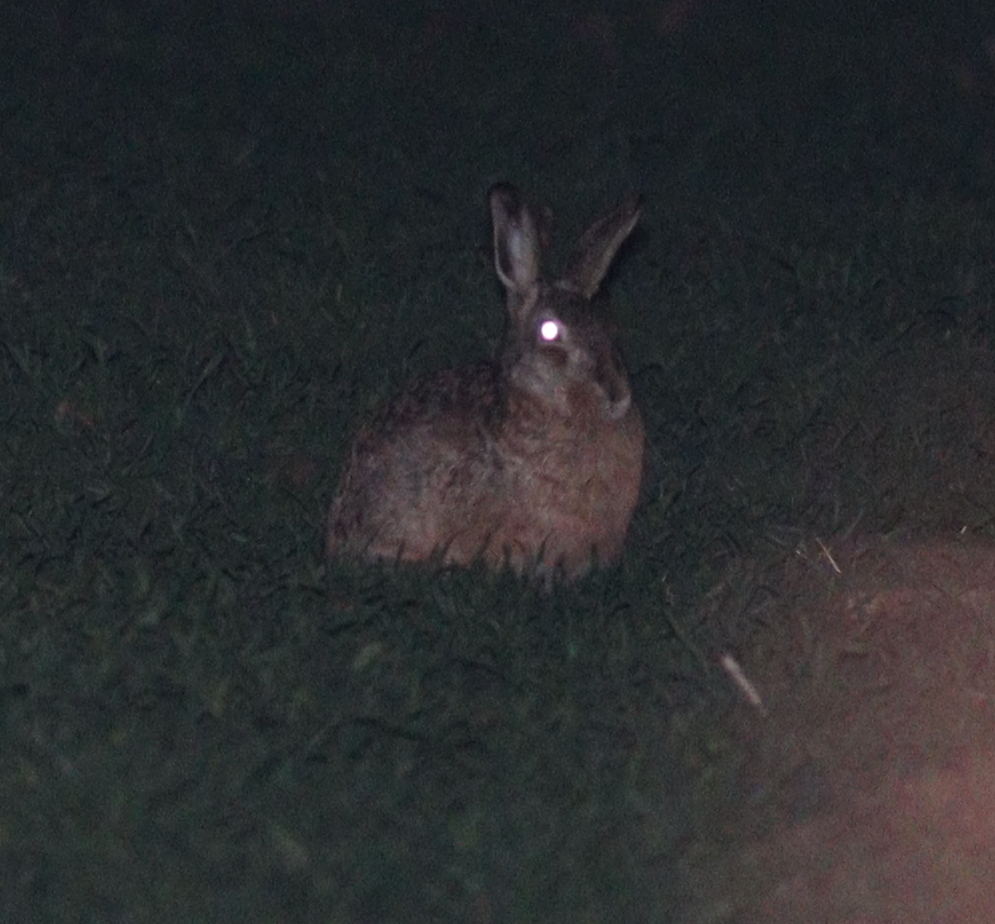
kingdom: Animalia
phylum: Chordata
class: Mammalia
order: Lagomorpha
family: Leporidae
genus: Lepus
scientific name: Lepus europaeus
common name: European hare
